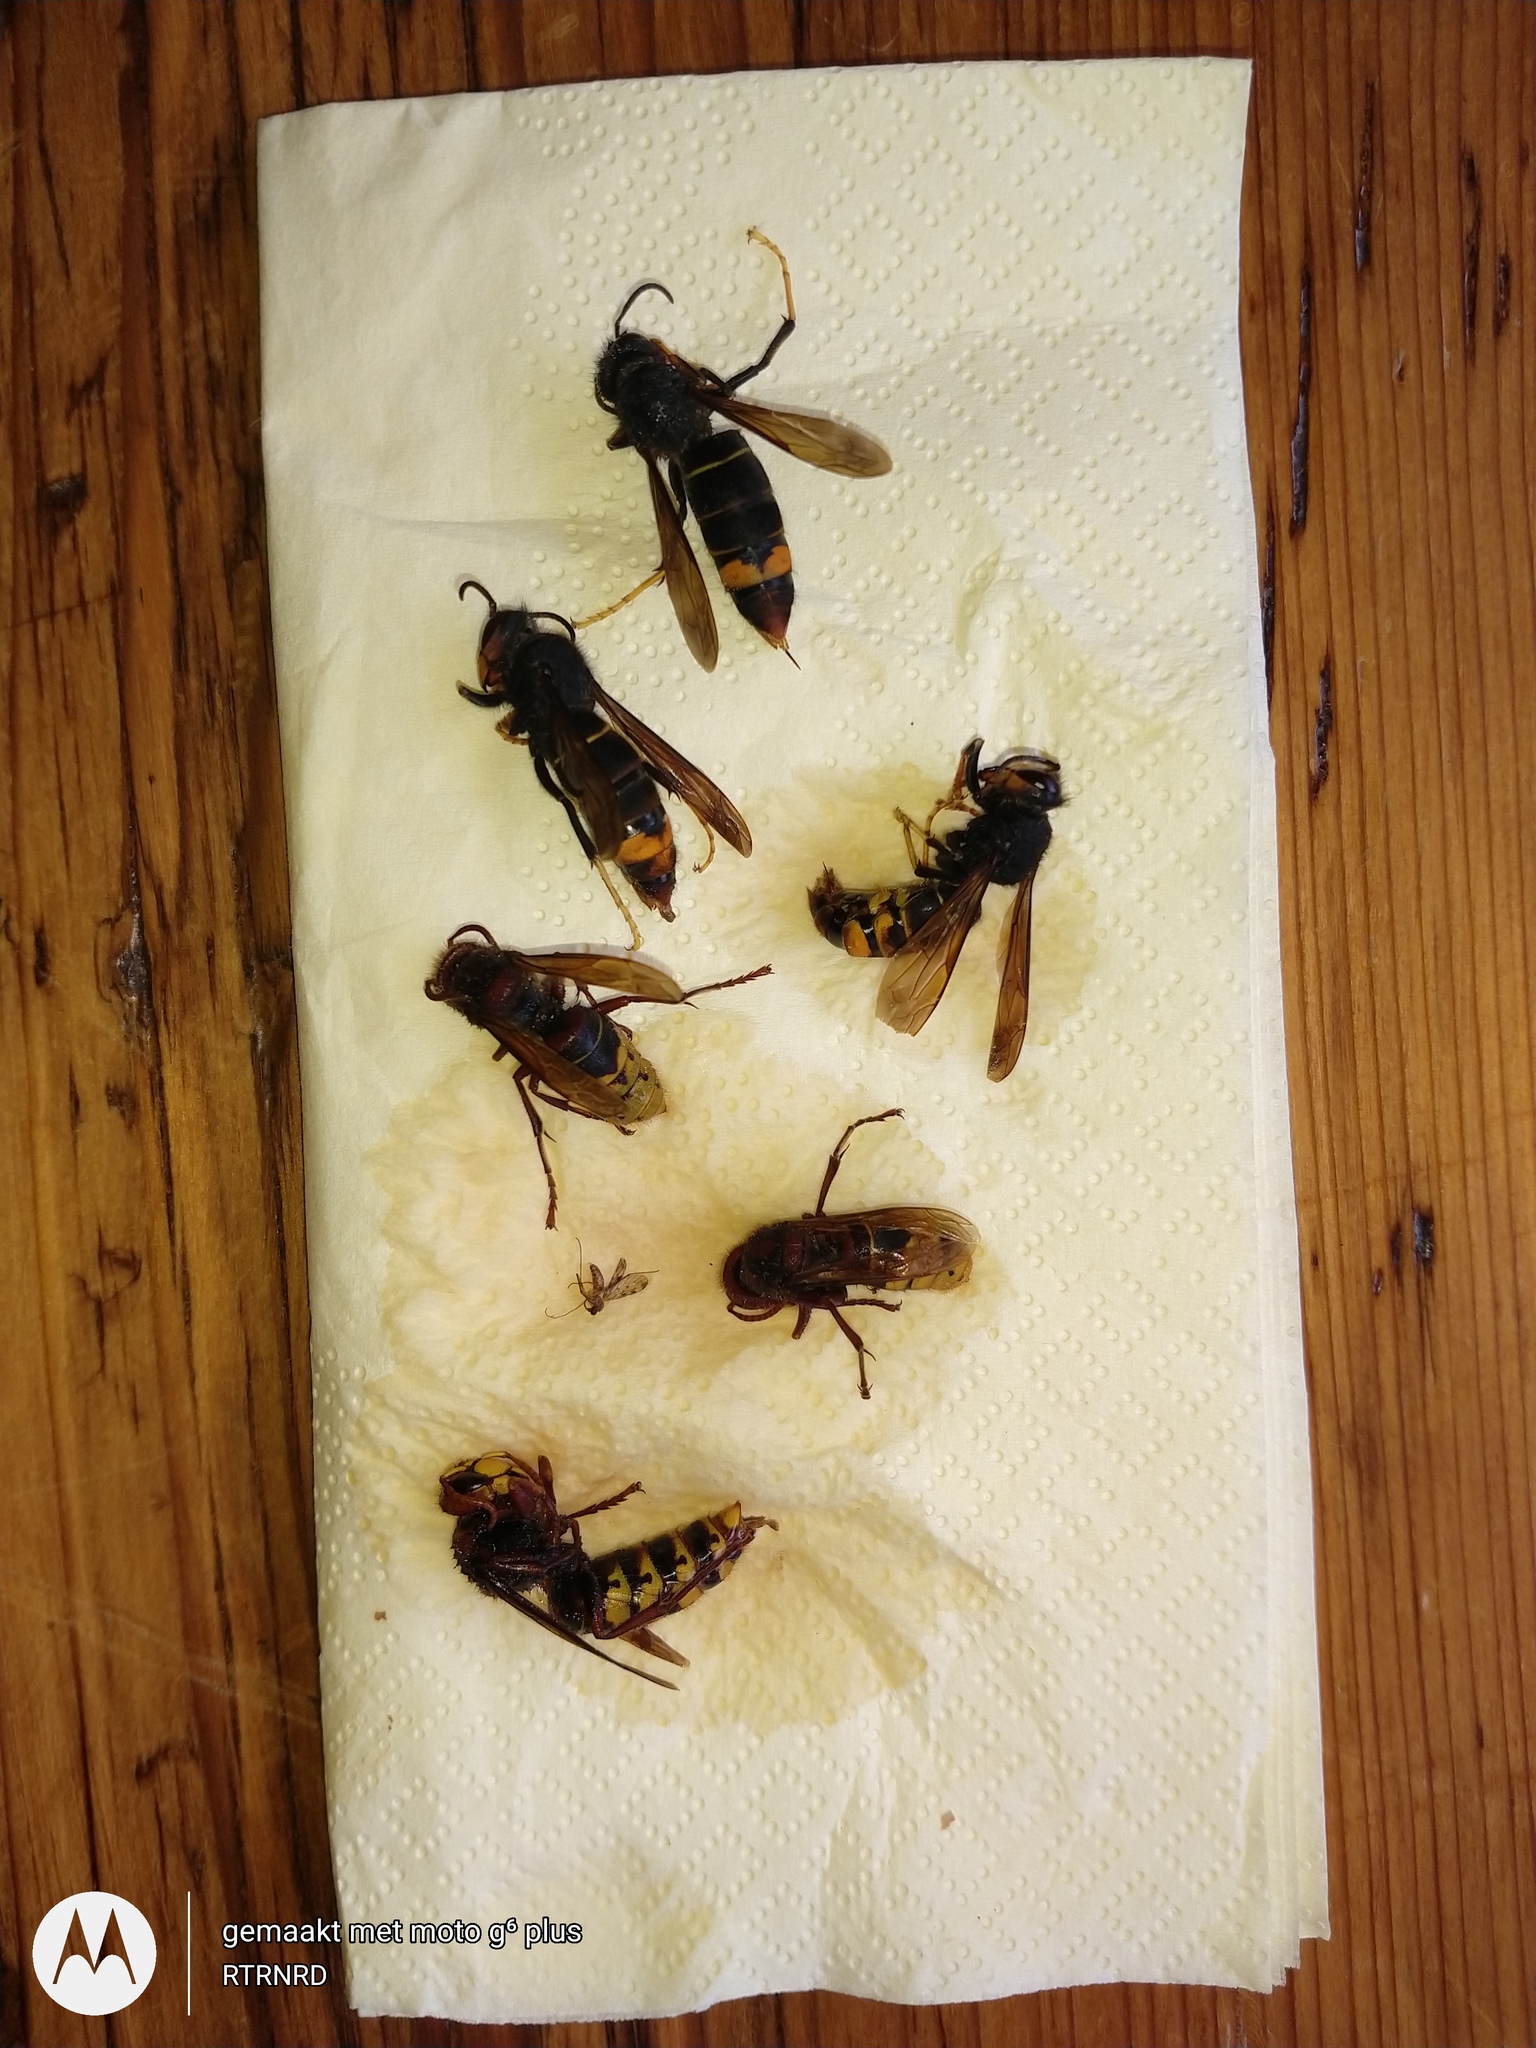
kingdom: Animalia
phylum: Arthropoda
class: Insecta
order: Hymenoptera
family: Vespidae
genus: Vespa
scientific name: Vespa velutina
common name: Asian hornet
